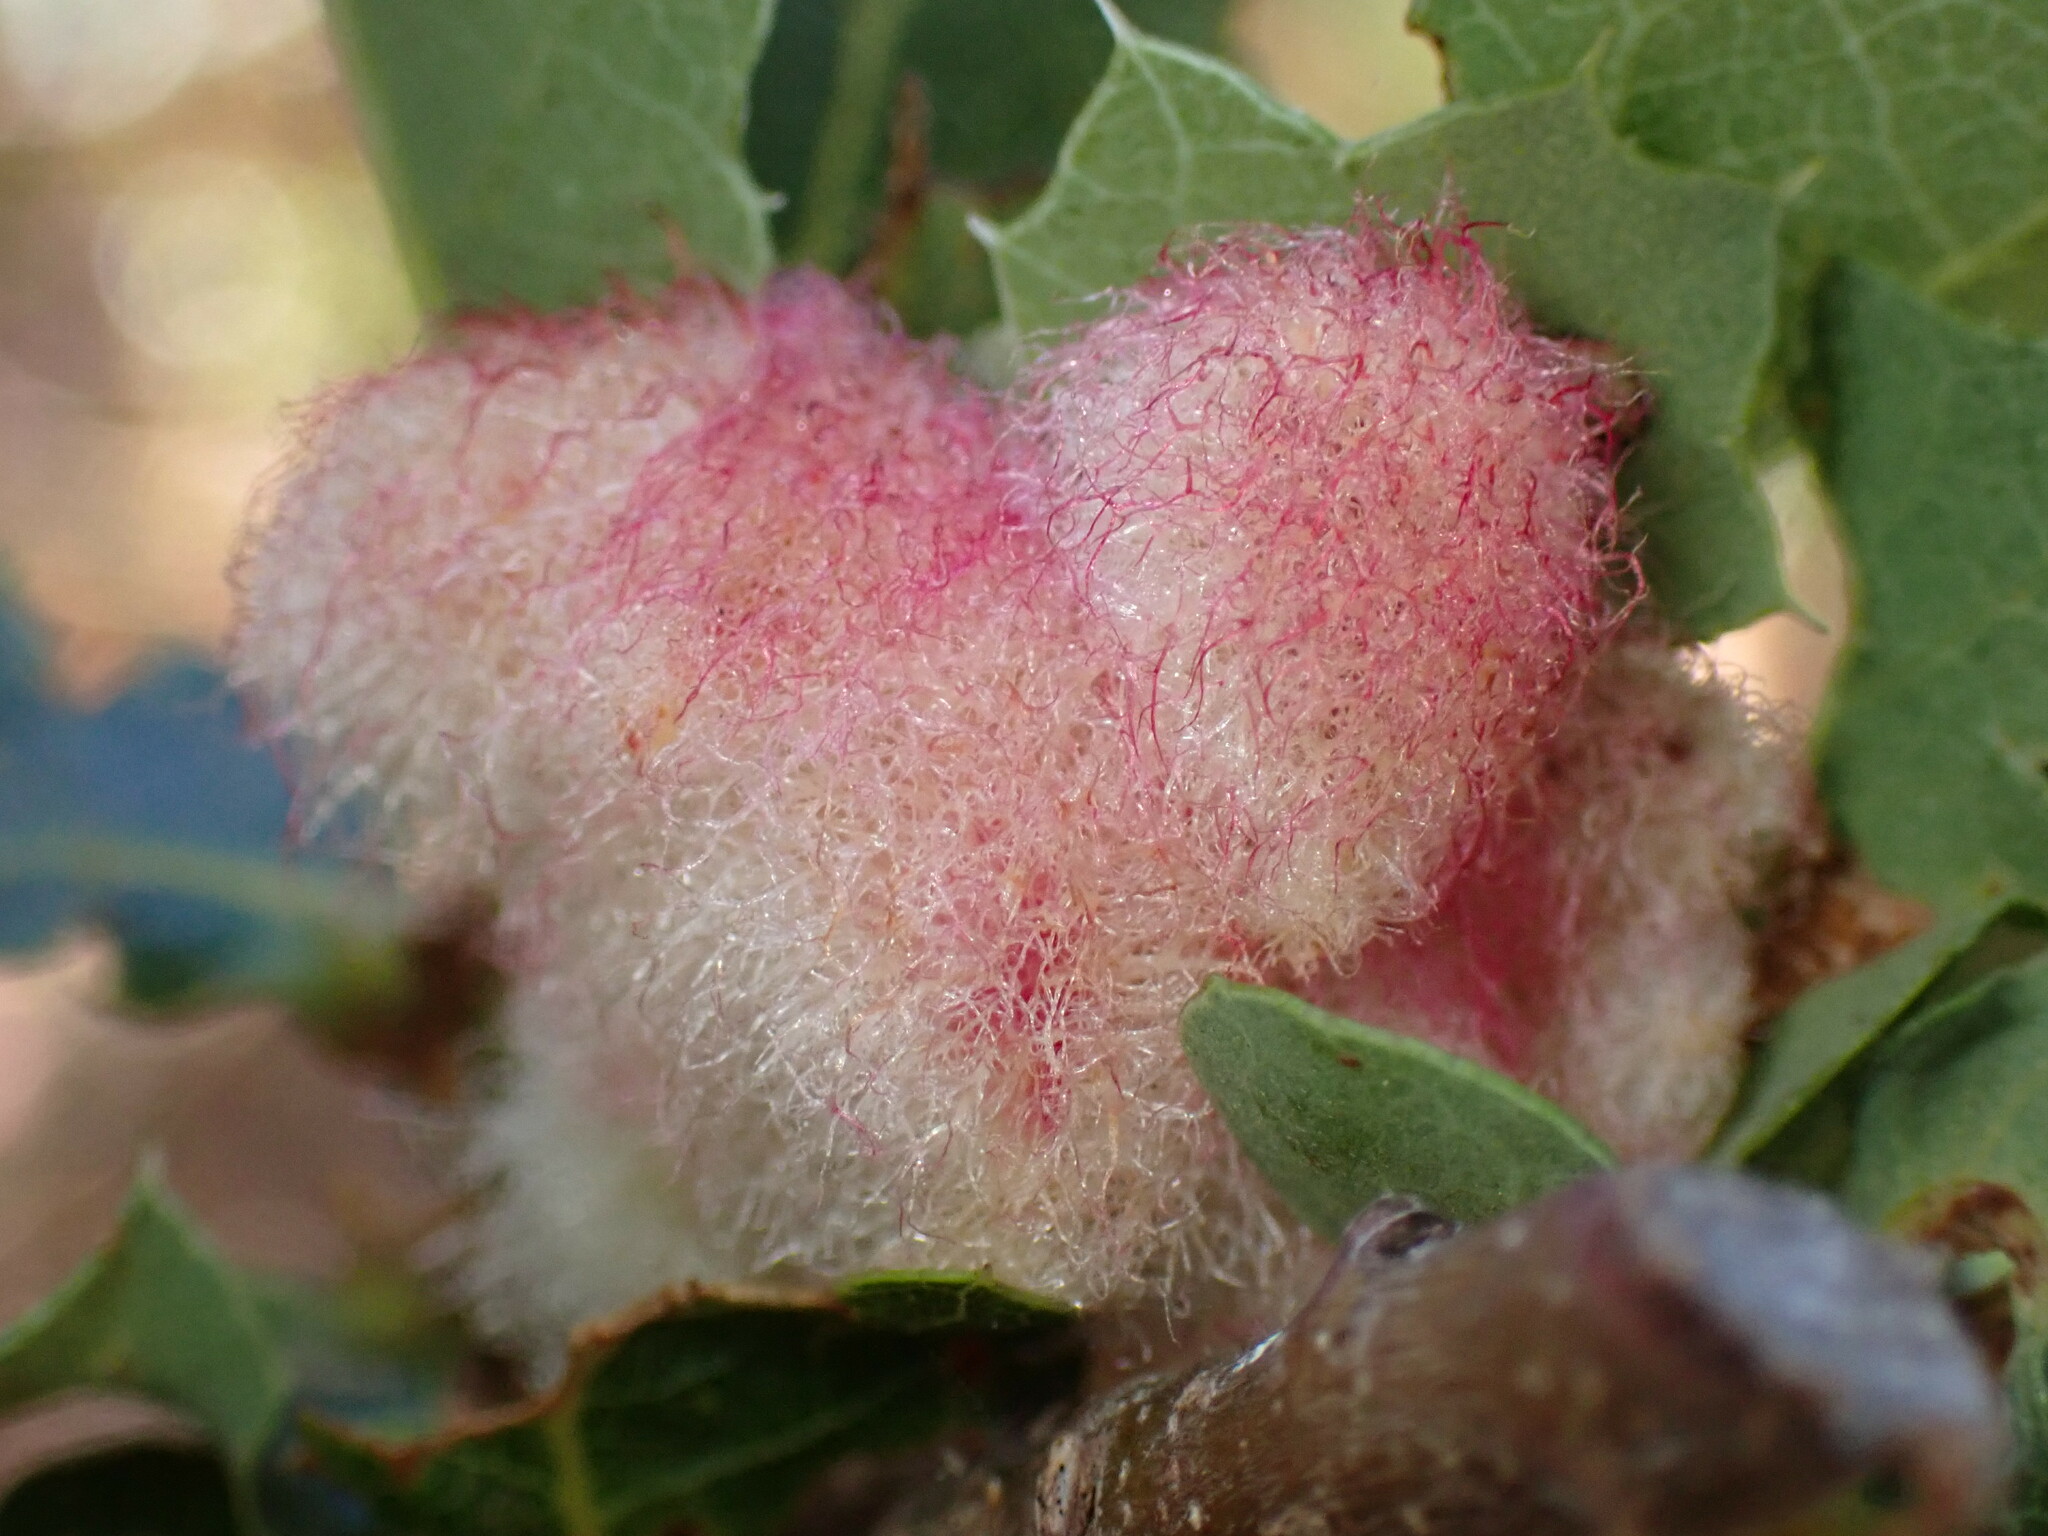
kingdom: Animalia
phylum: Arthropoda
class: Insecta
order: Hymenoptera
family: Cynipidae
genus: Andricus
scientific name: Andricus
